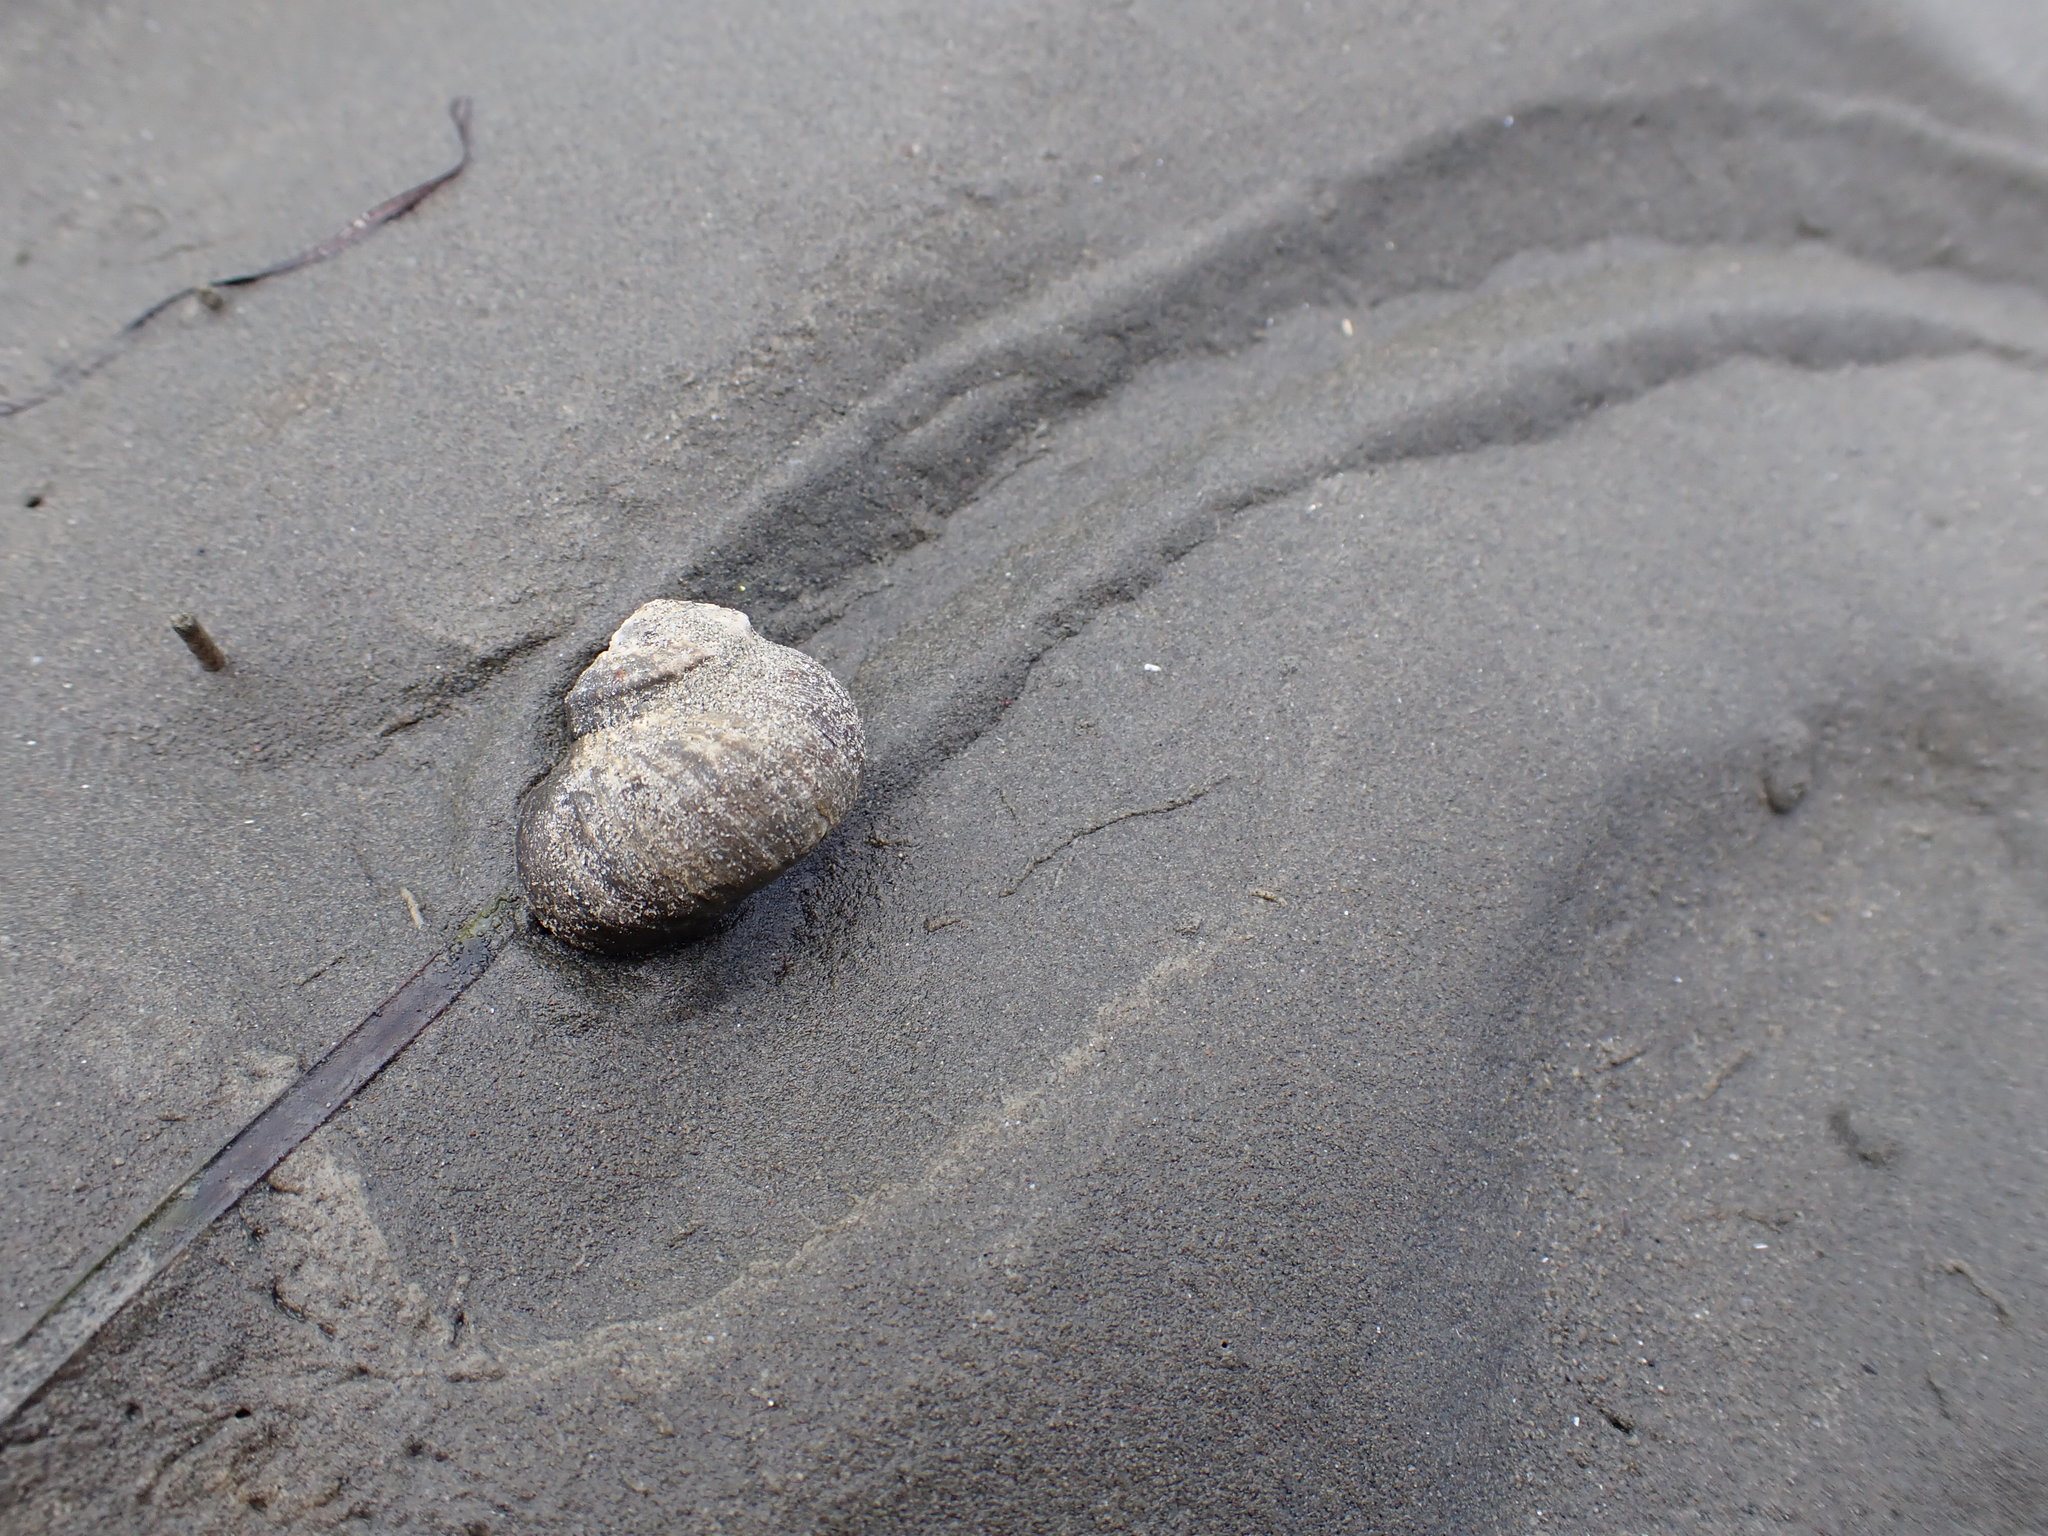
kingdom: Animalia
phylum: Mollusca
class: Gastropoda
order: Trochida
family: Turbinidae
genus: Lunella
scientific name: Lunella smaragda
